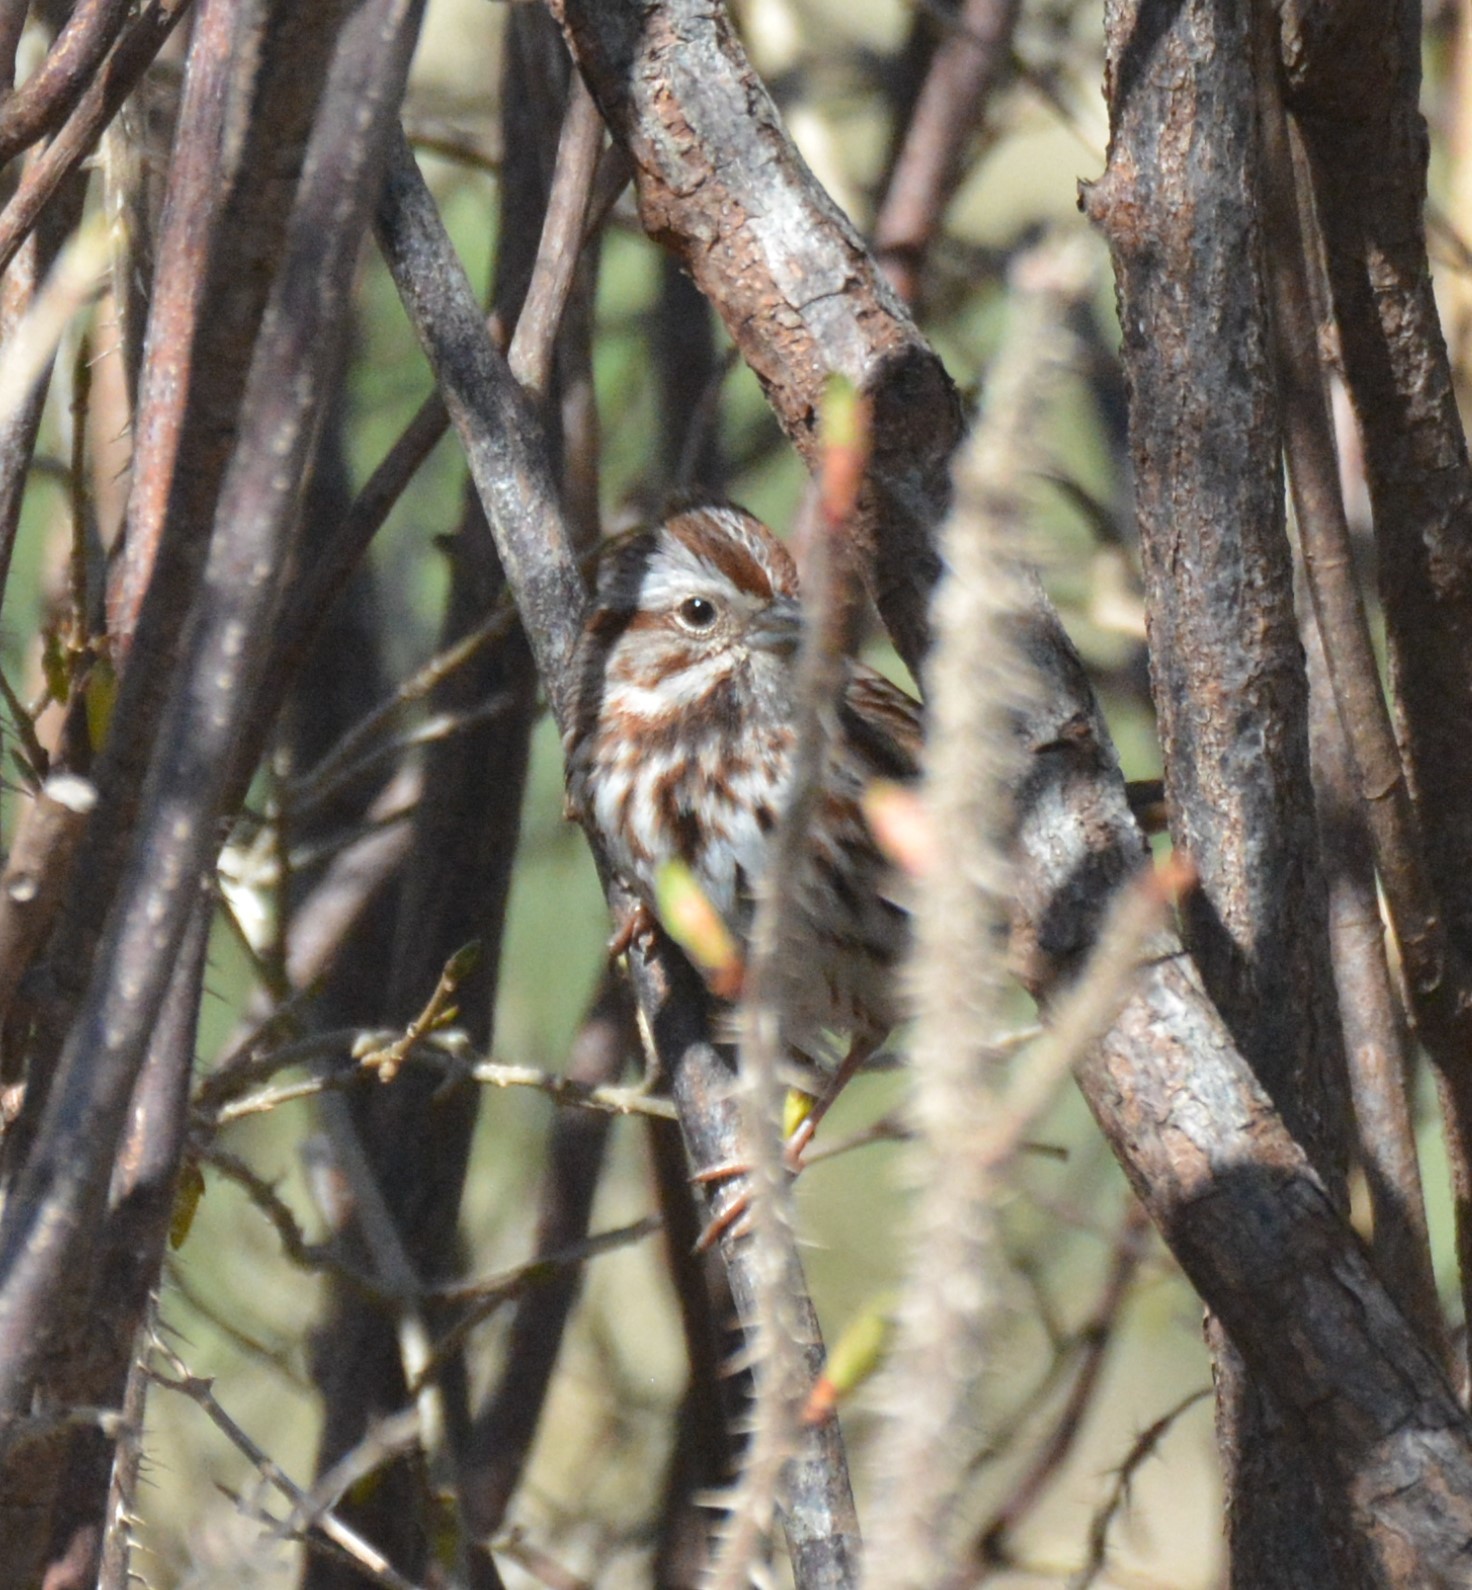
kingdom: Animalia
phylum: Chordata
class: Aves
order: Passeriformes
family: Passerellidae
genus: Melospiza
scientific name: Melospiza melodia
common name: Song sparrow
